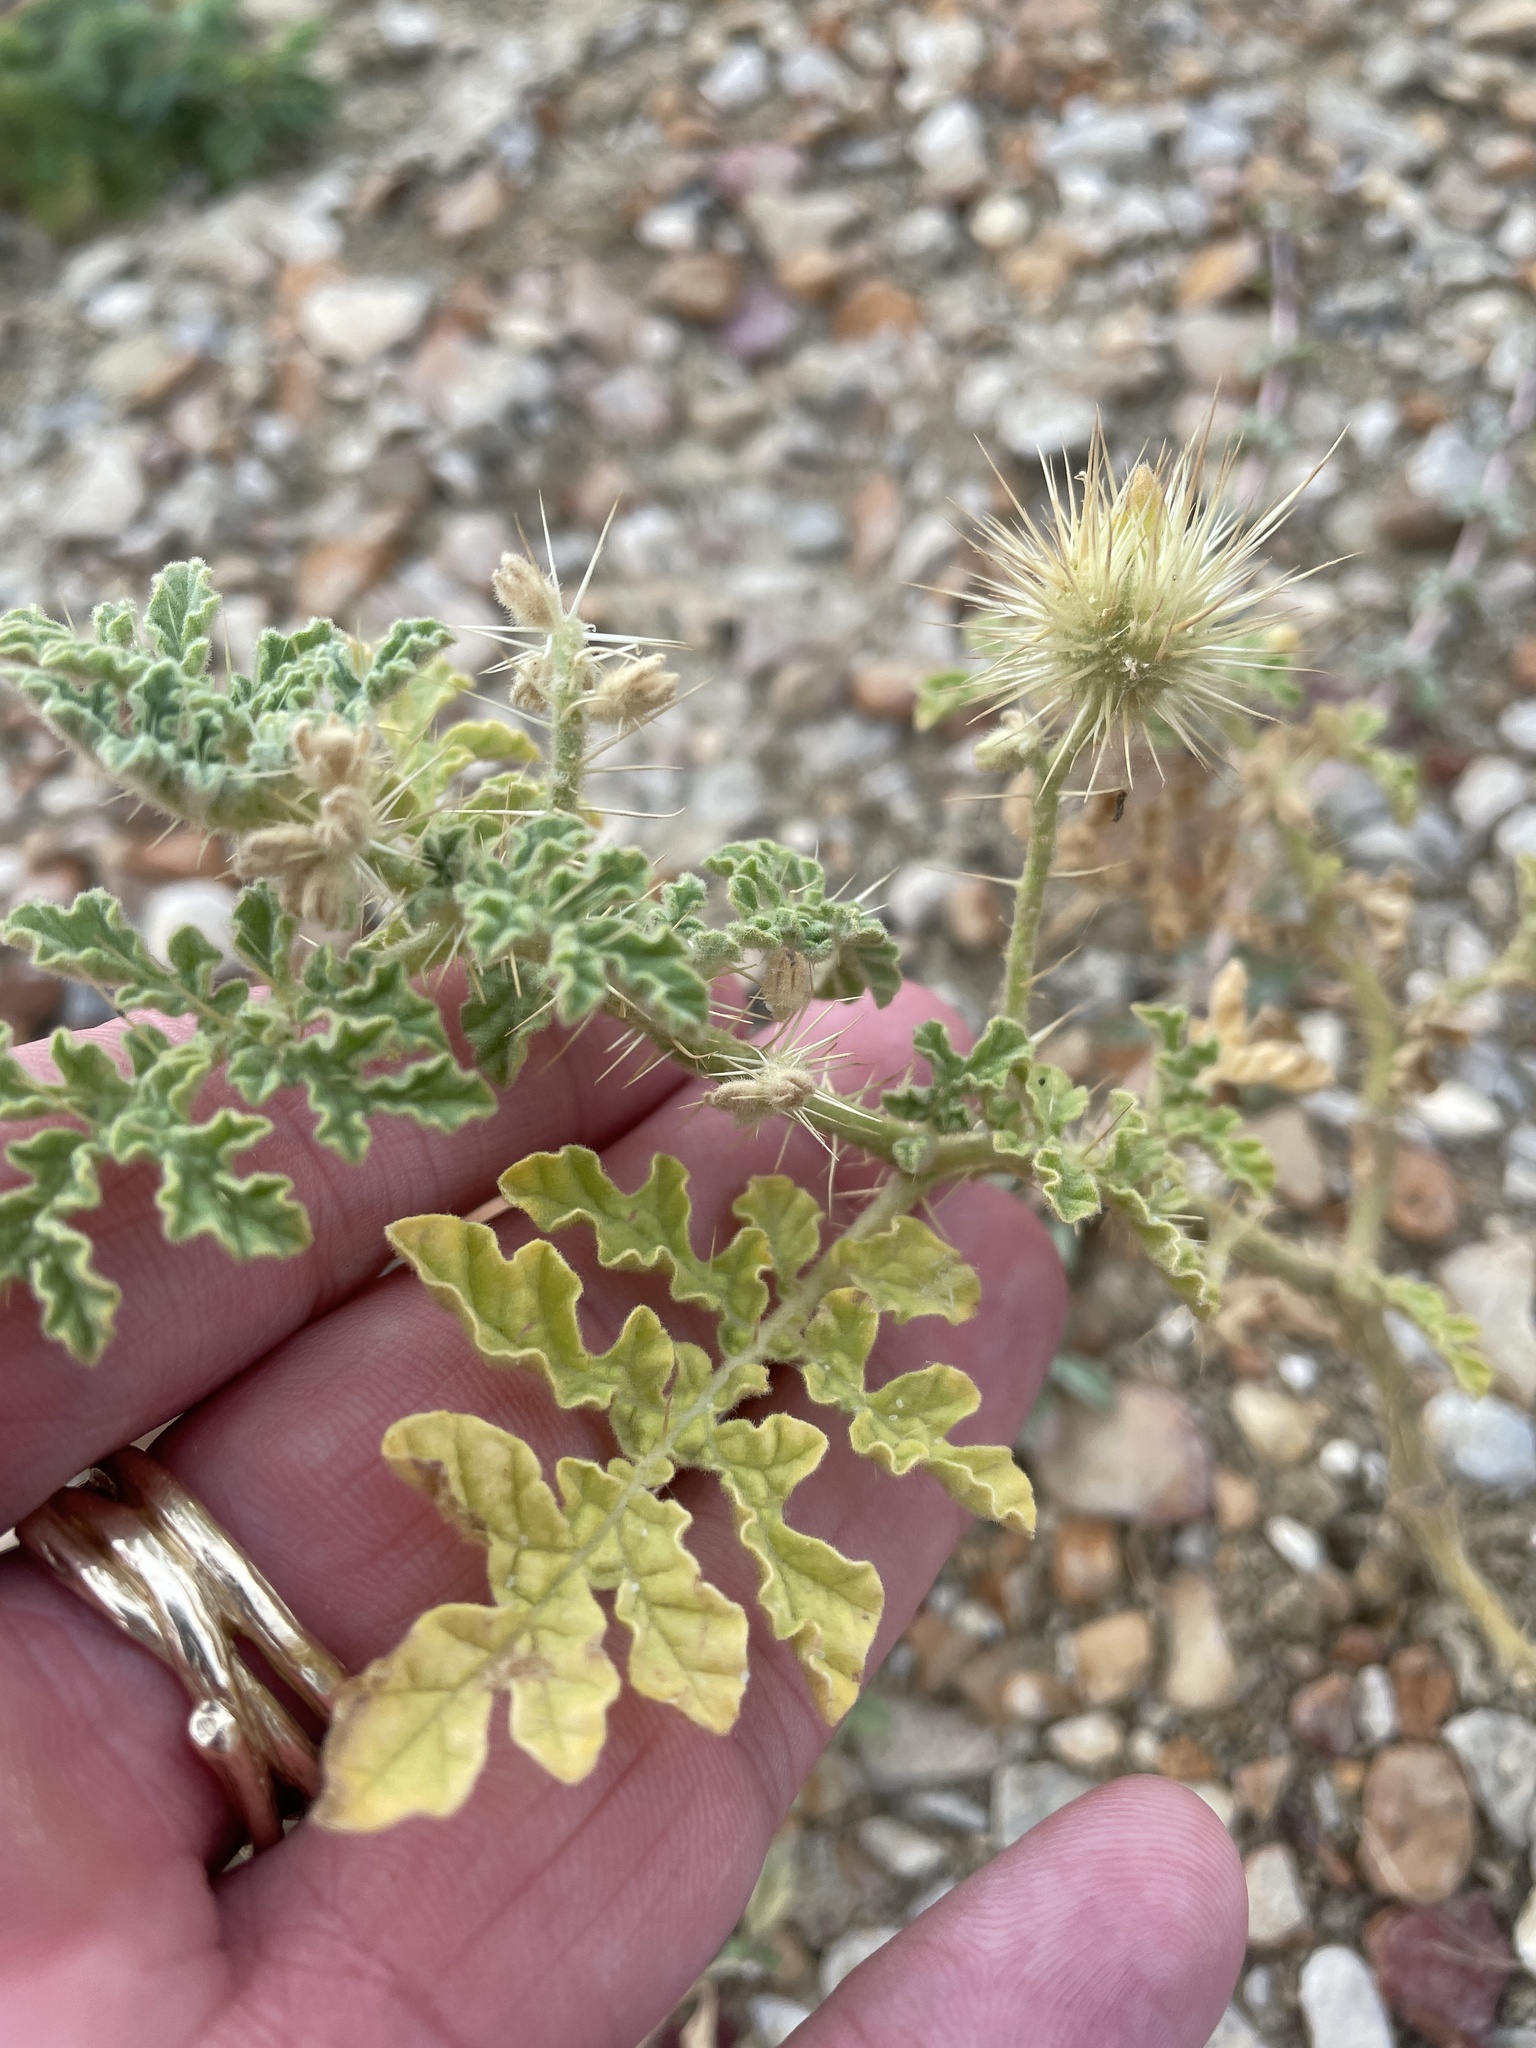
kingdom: Plantae
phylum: Tracheophyta
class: Magnoliopsida
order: Solanales
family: Solanaceae
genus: Solanum
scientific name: Solanum angustifolium
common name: Buffalobur nightshade
